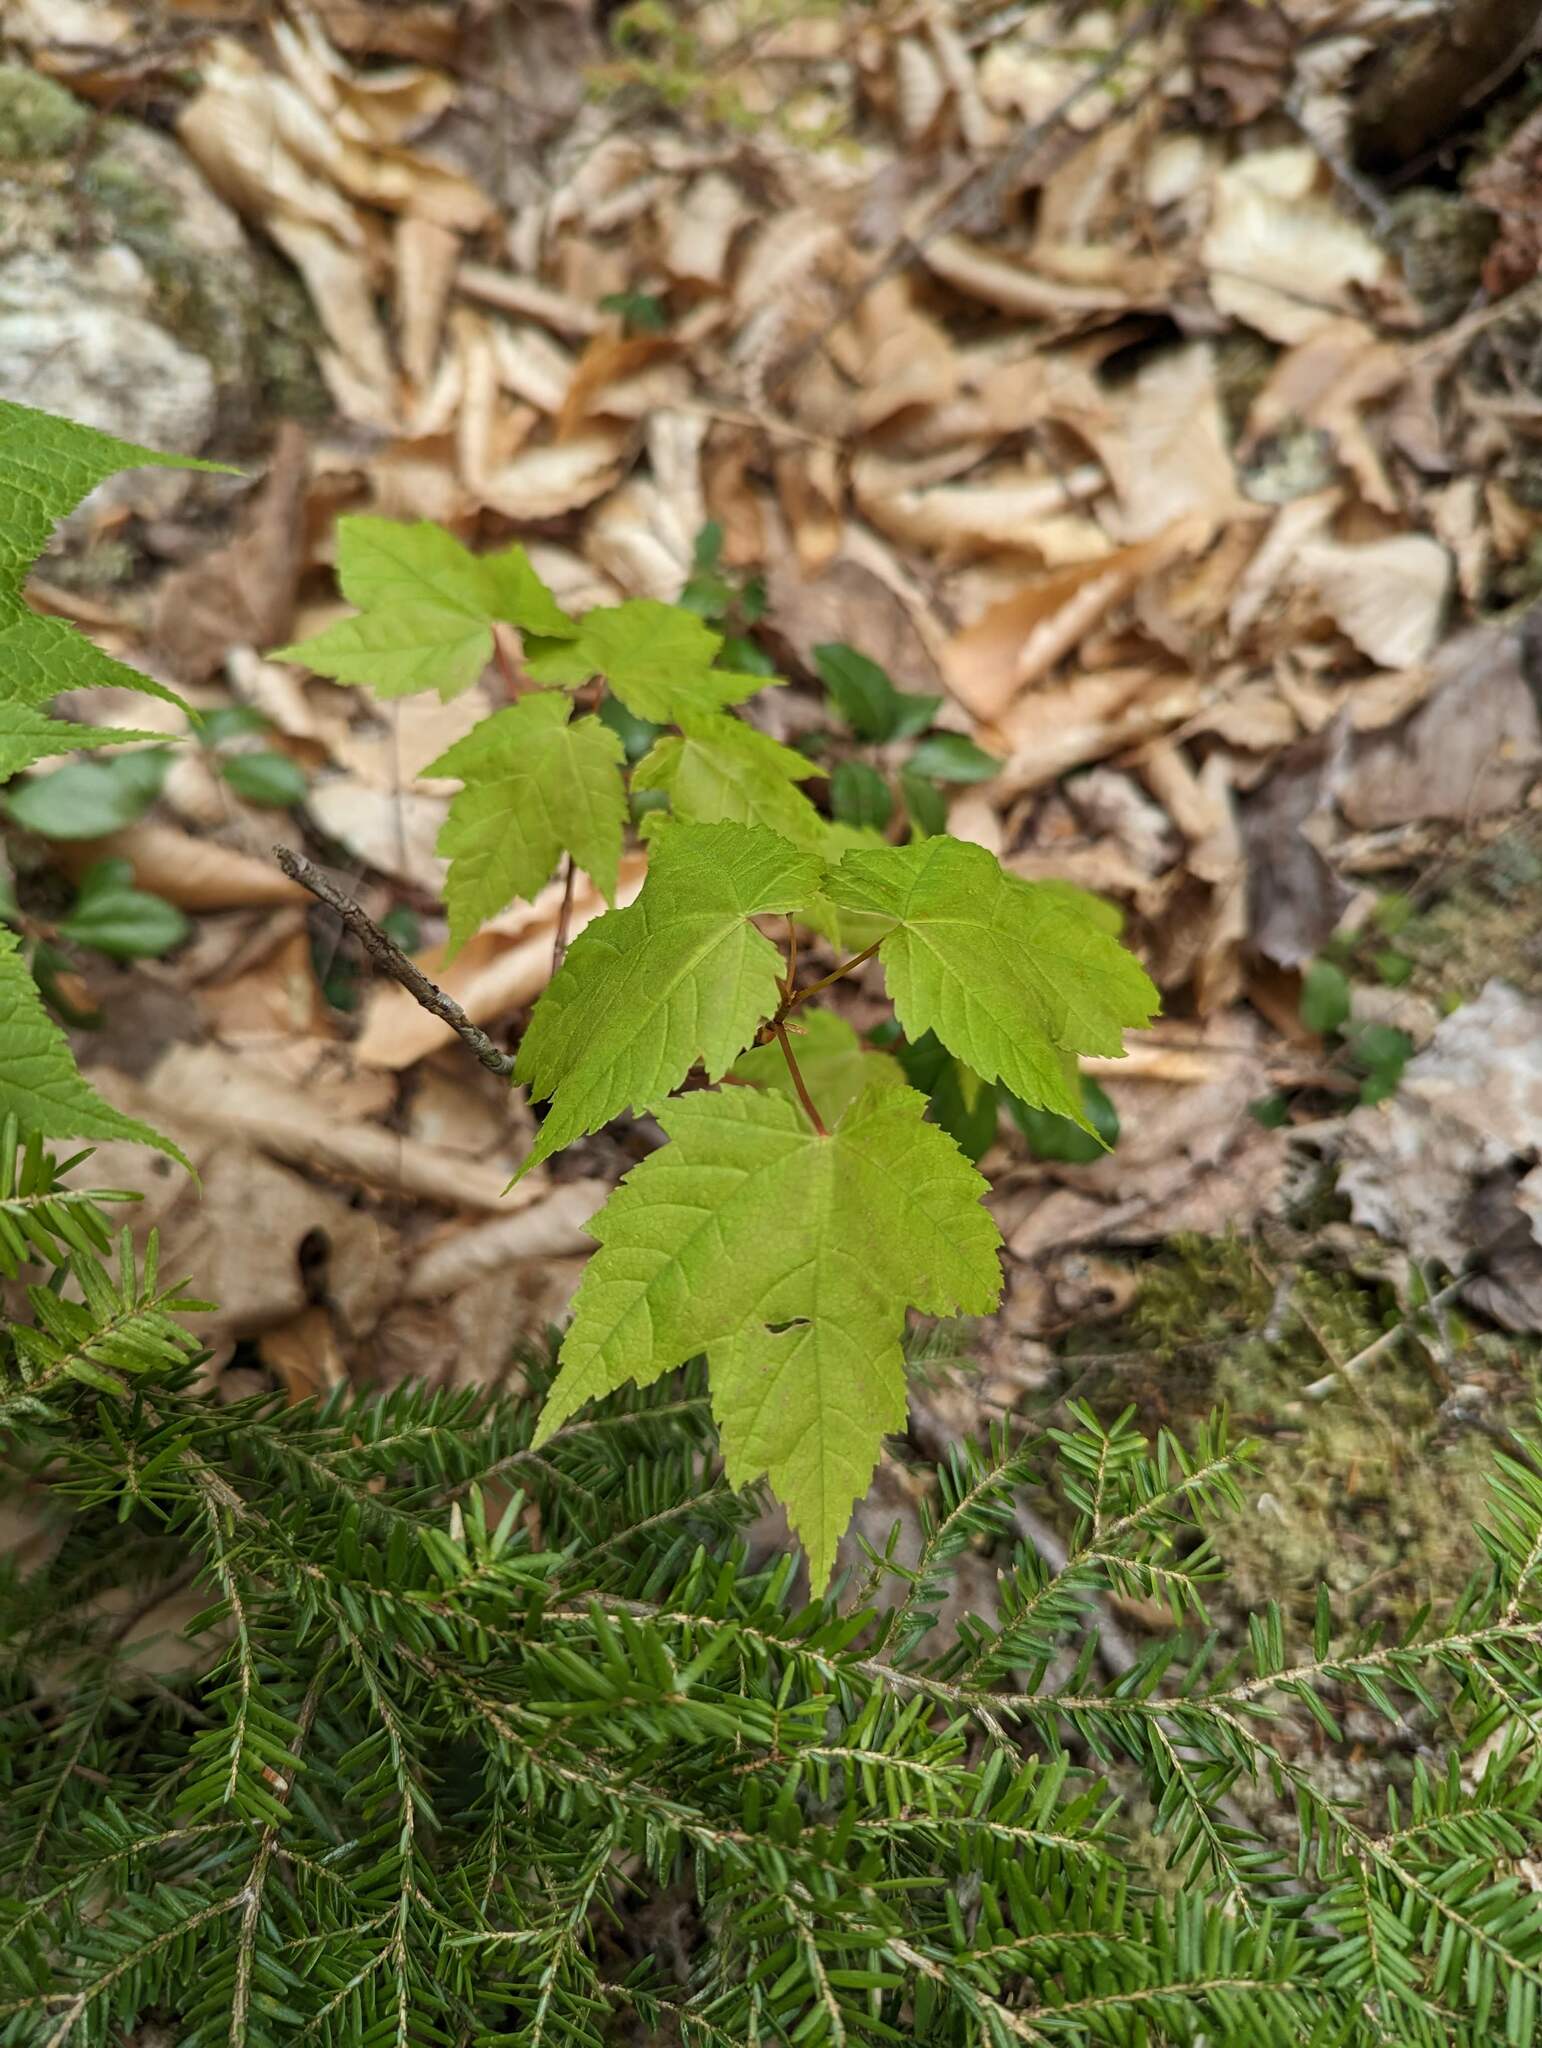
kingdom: Plantae
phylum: Tracheophyta
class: Magnoliopsida
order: Sapindales
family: Sapindaceae
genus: Acer
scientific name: Acer rubrum
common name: Red maple
